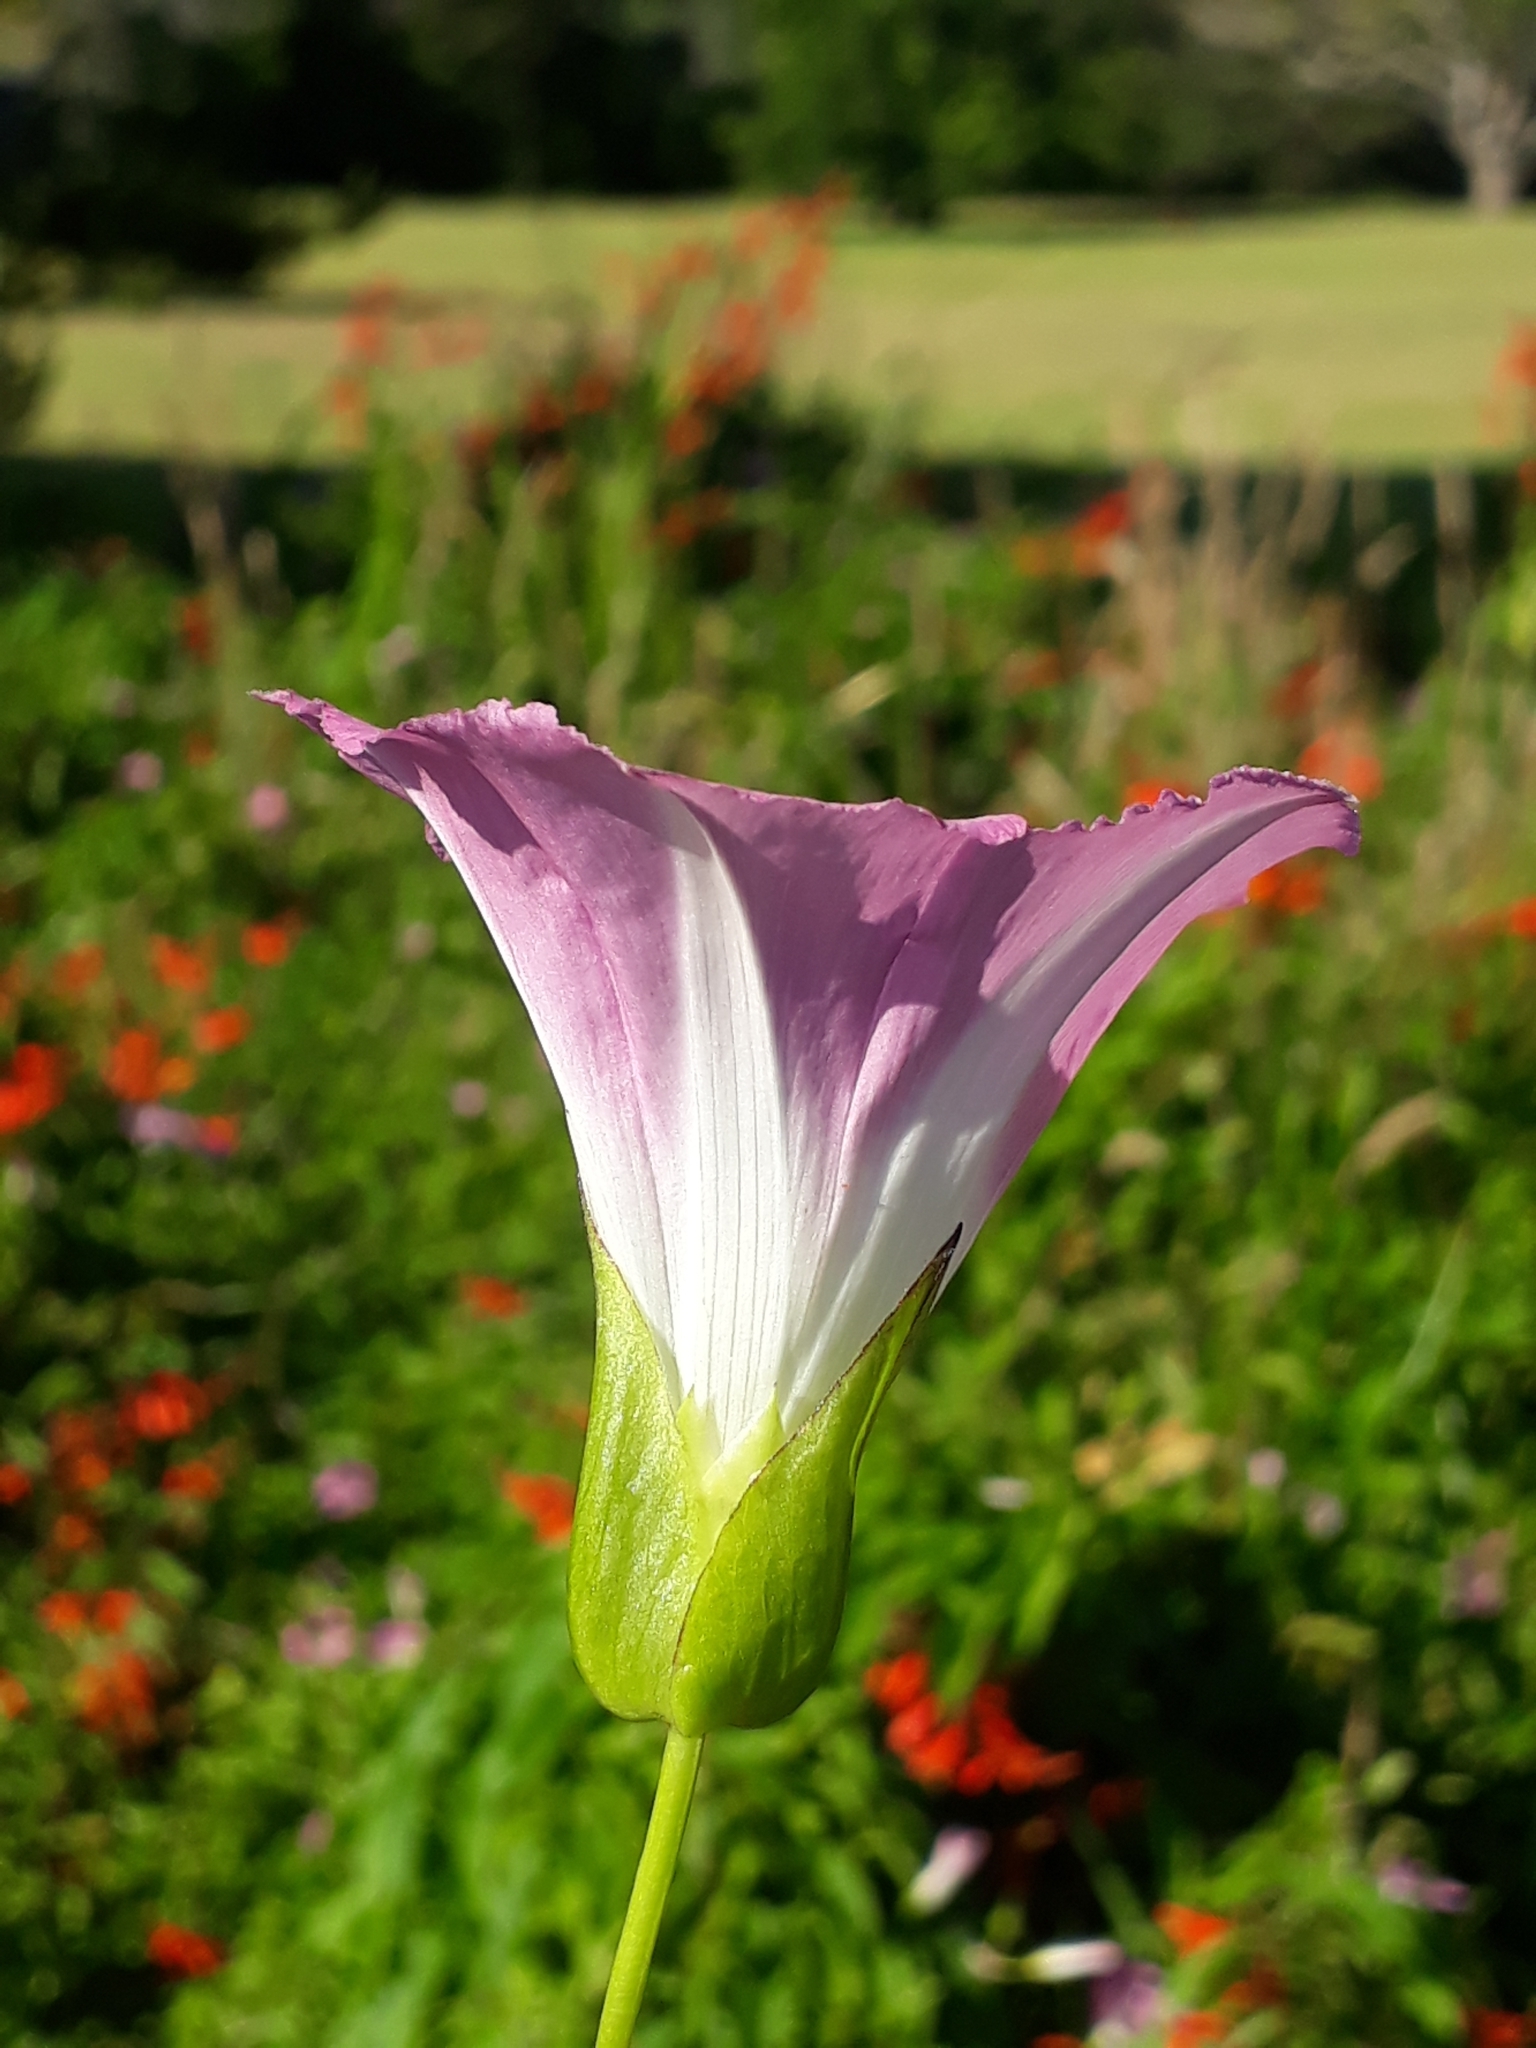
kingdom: Plantae
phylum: Tracheophyta
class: Magnoliopsida
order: Solanales
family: Convolvulaceae
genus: Calystegia
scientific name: Calystegia sepium
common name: Hedge bindweed
